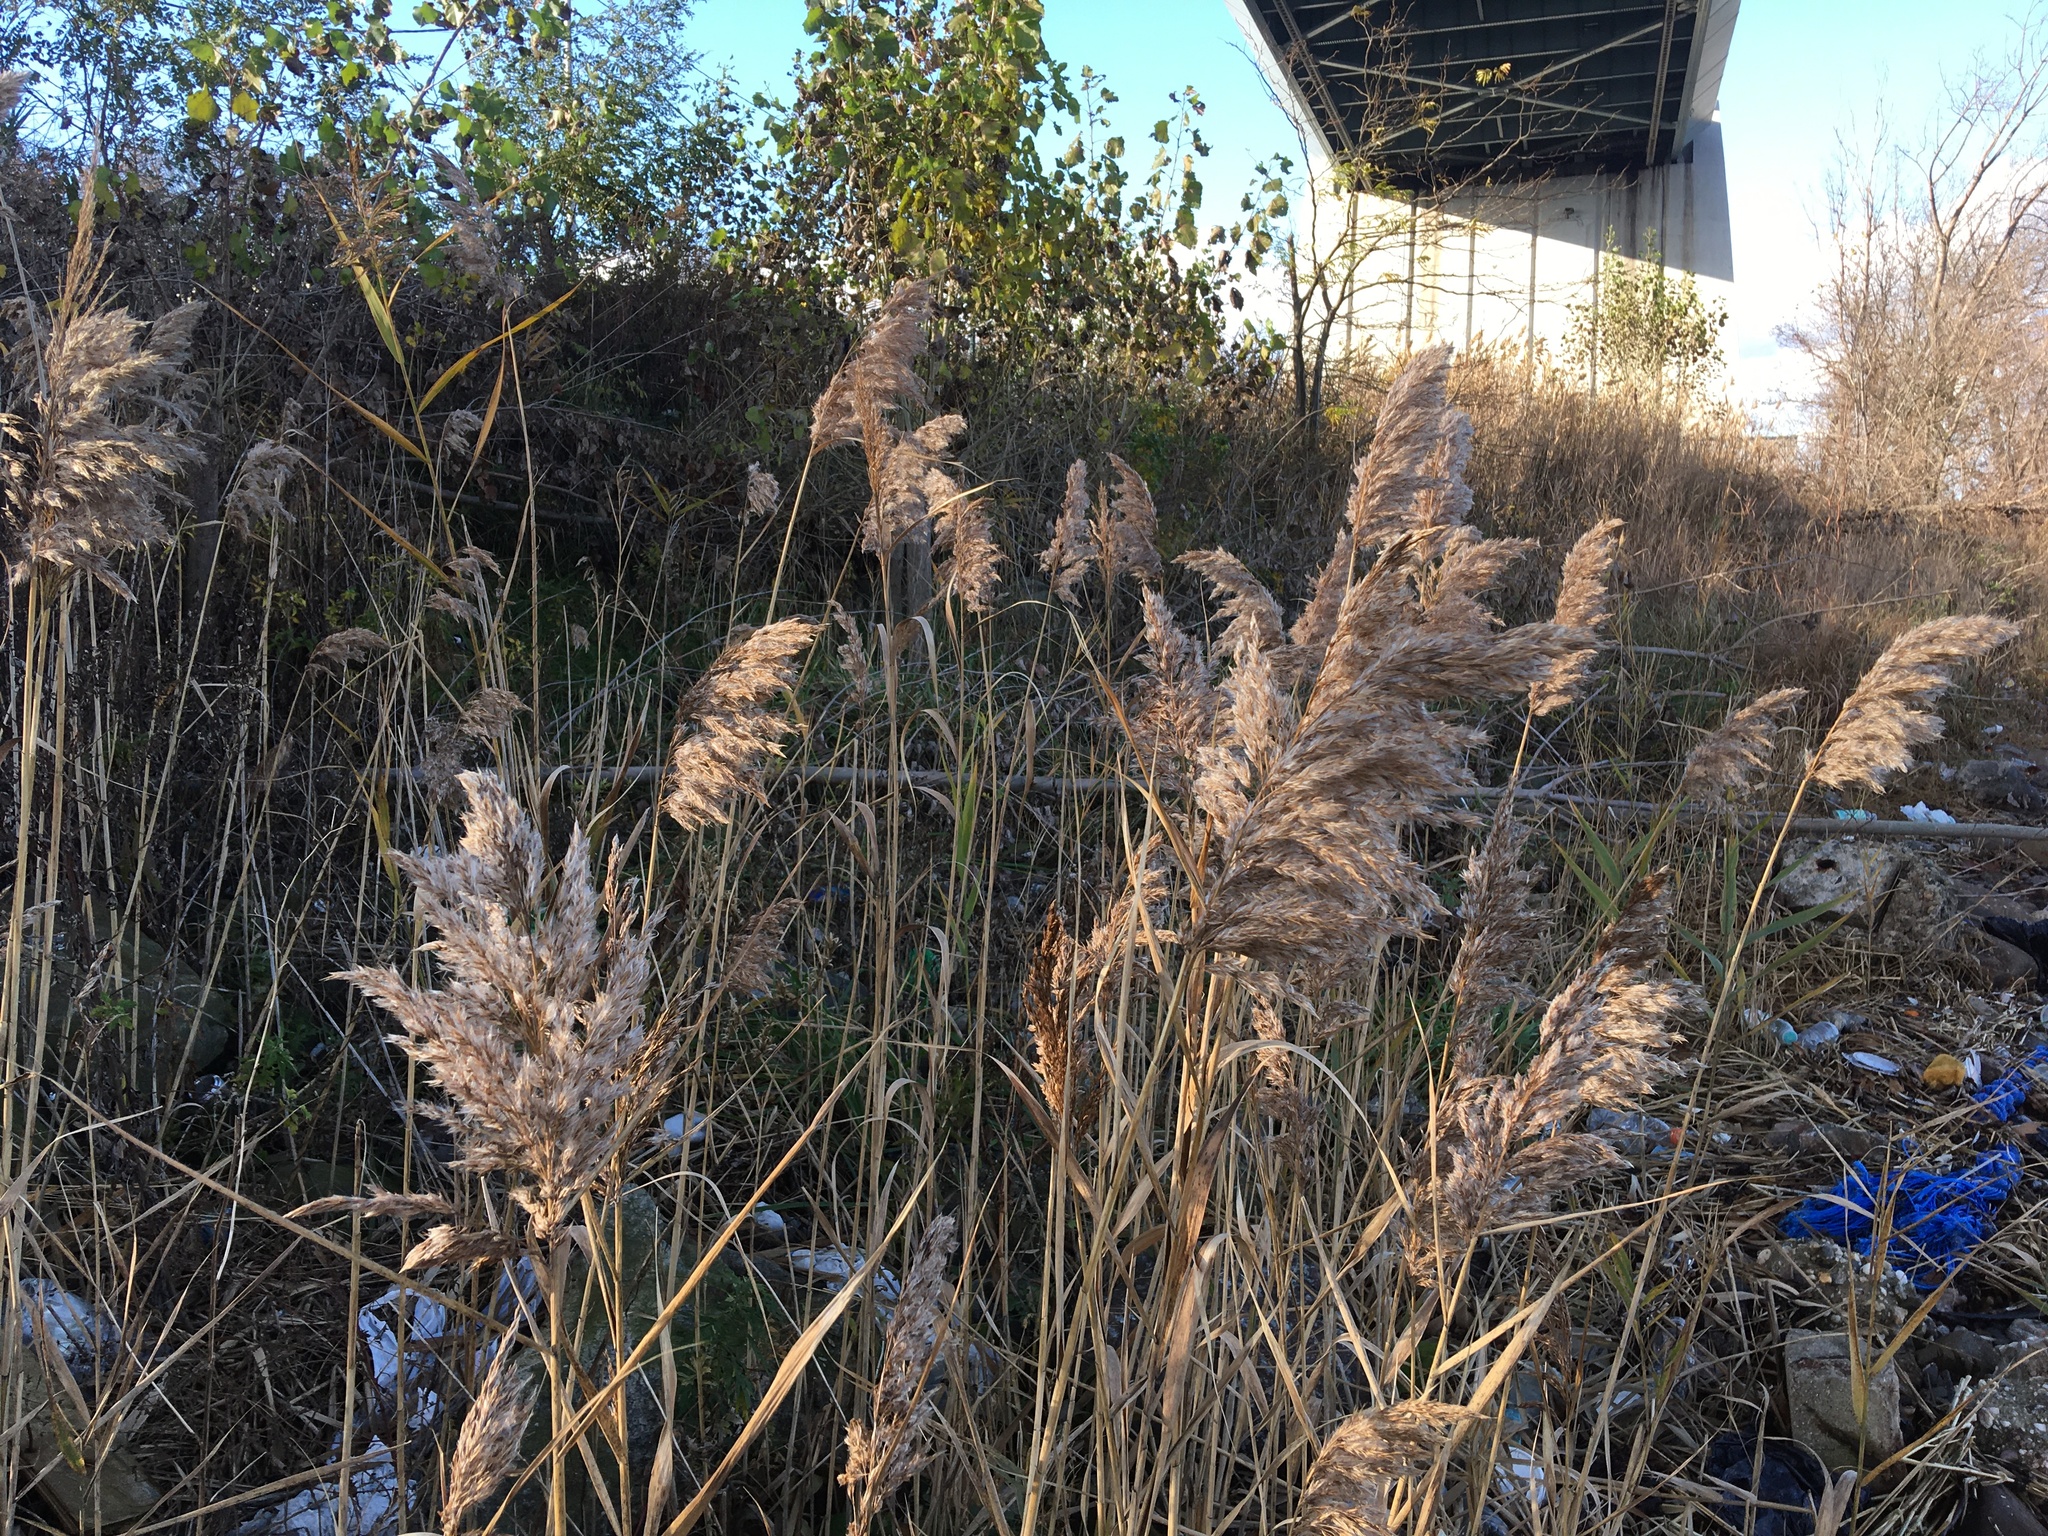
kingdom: Plantae
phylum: Tracheophyta
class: Liliopsida
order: Poales
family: Poaceae
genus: Phragmites
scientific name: Phragmites australis
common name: Common reed
